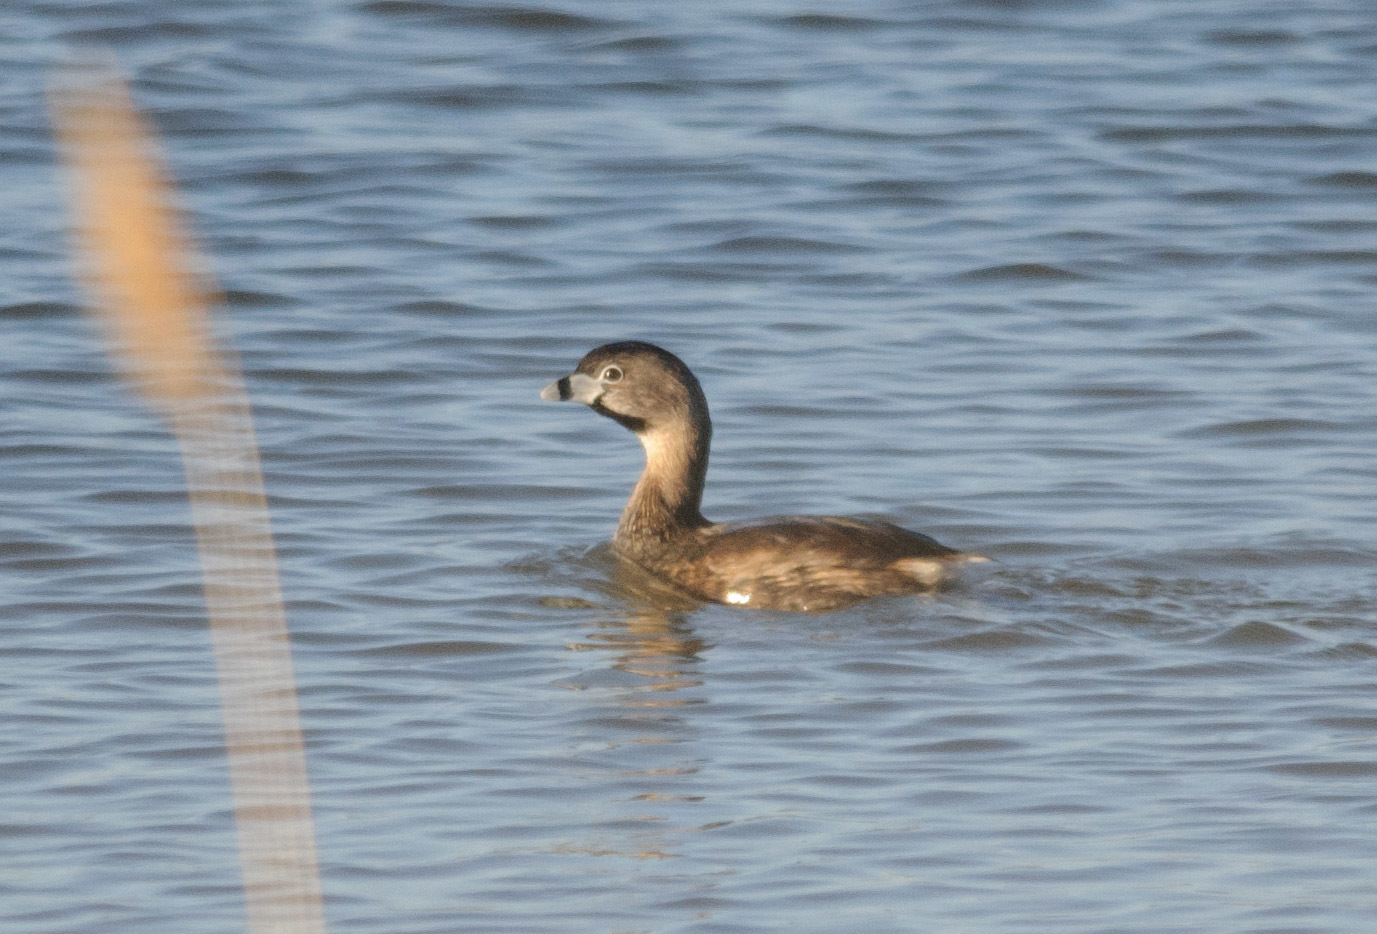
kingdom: Animalia
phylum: Chordata
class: Aves
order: Podicipediformes
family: Podicipedidae
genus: Podilymbus
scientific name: Podilymbus podiceps
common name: Pied-billed grebe
